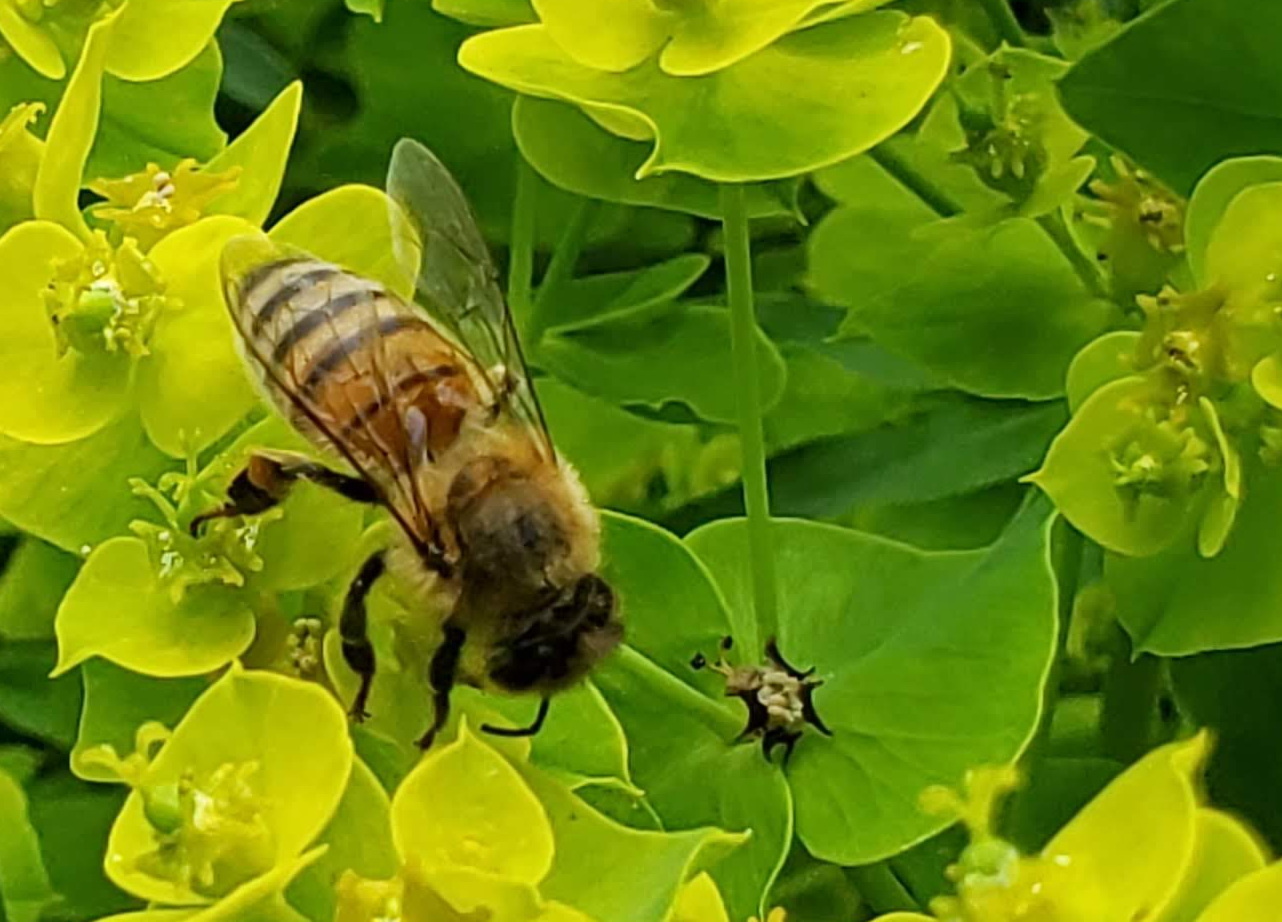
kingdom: Animalia
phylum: Arthropoda
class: Insecta
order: Hymenoptera
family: Apidae
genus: Apis
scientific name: Apis mellifera
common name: Honey bee
